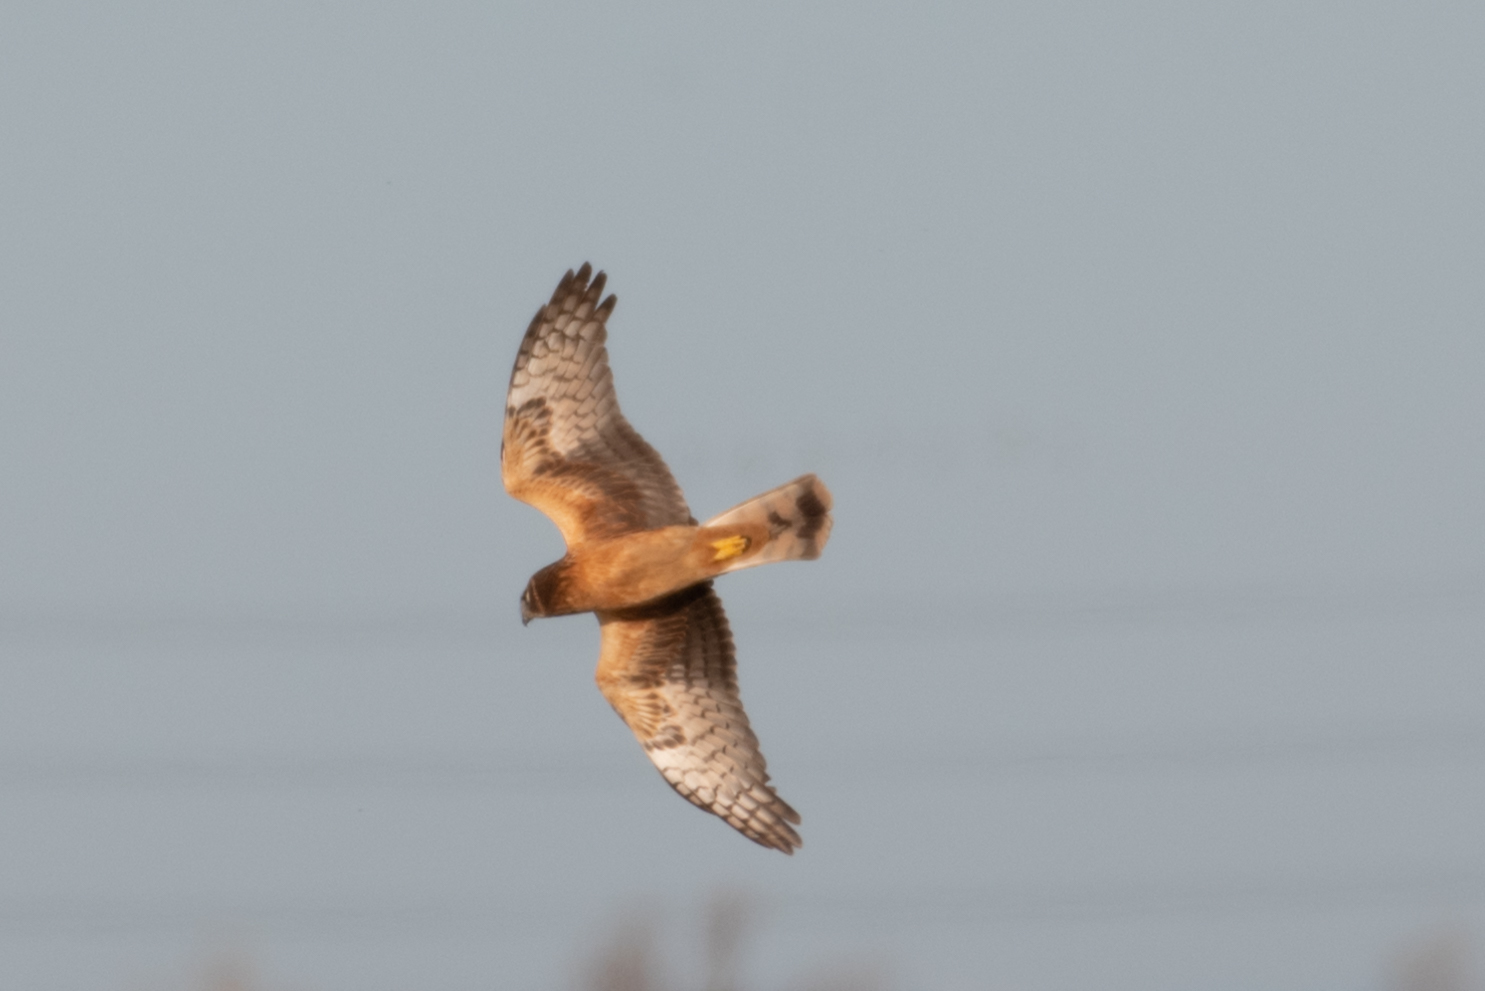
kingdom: Animalia
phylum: Chordata
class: Aves
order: Accipitriformes
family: Accipitridae
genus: Circus
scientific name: Circus cyaneus
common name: Hen harrier
